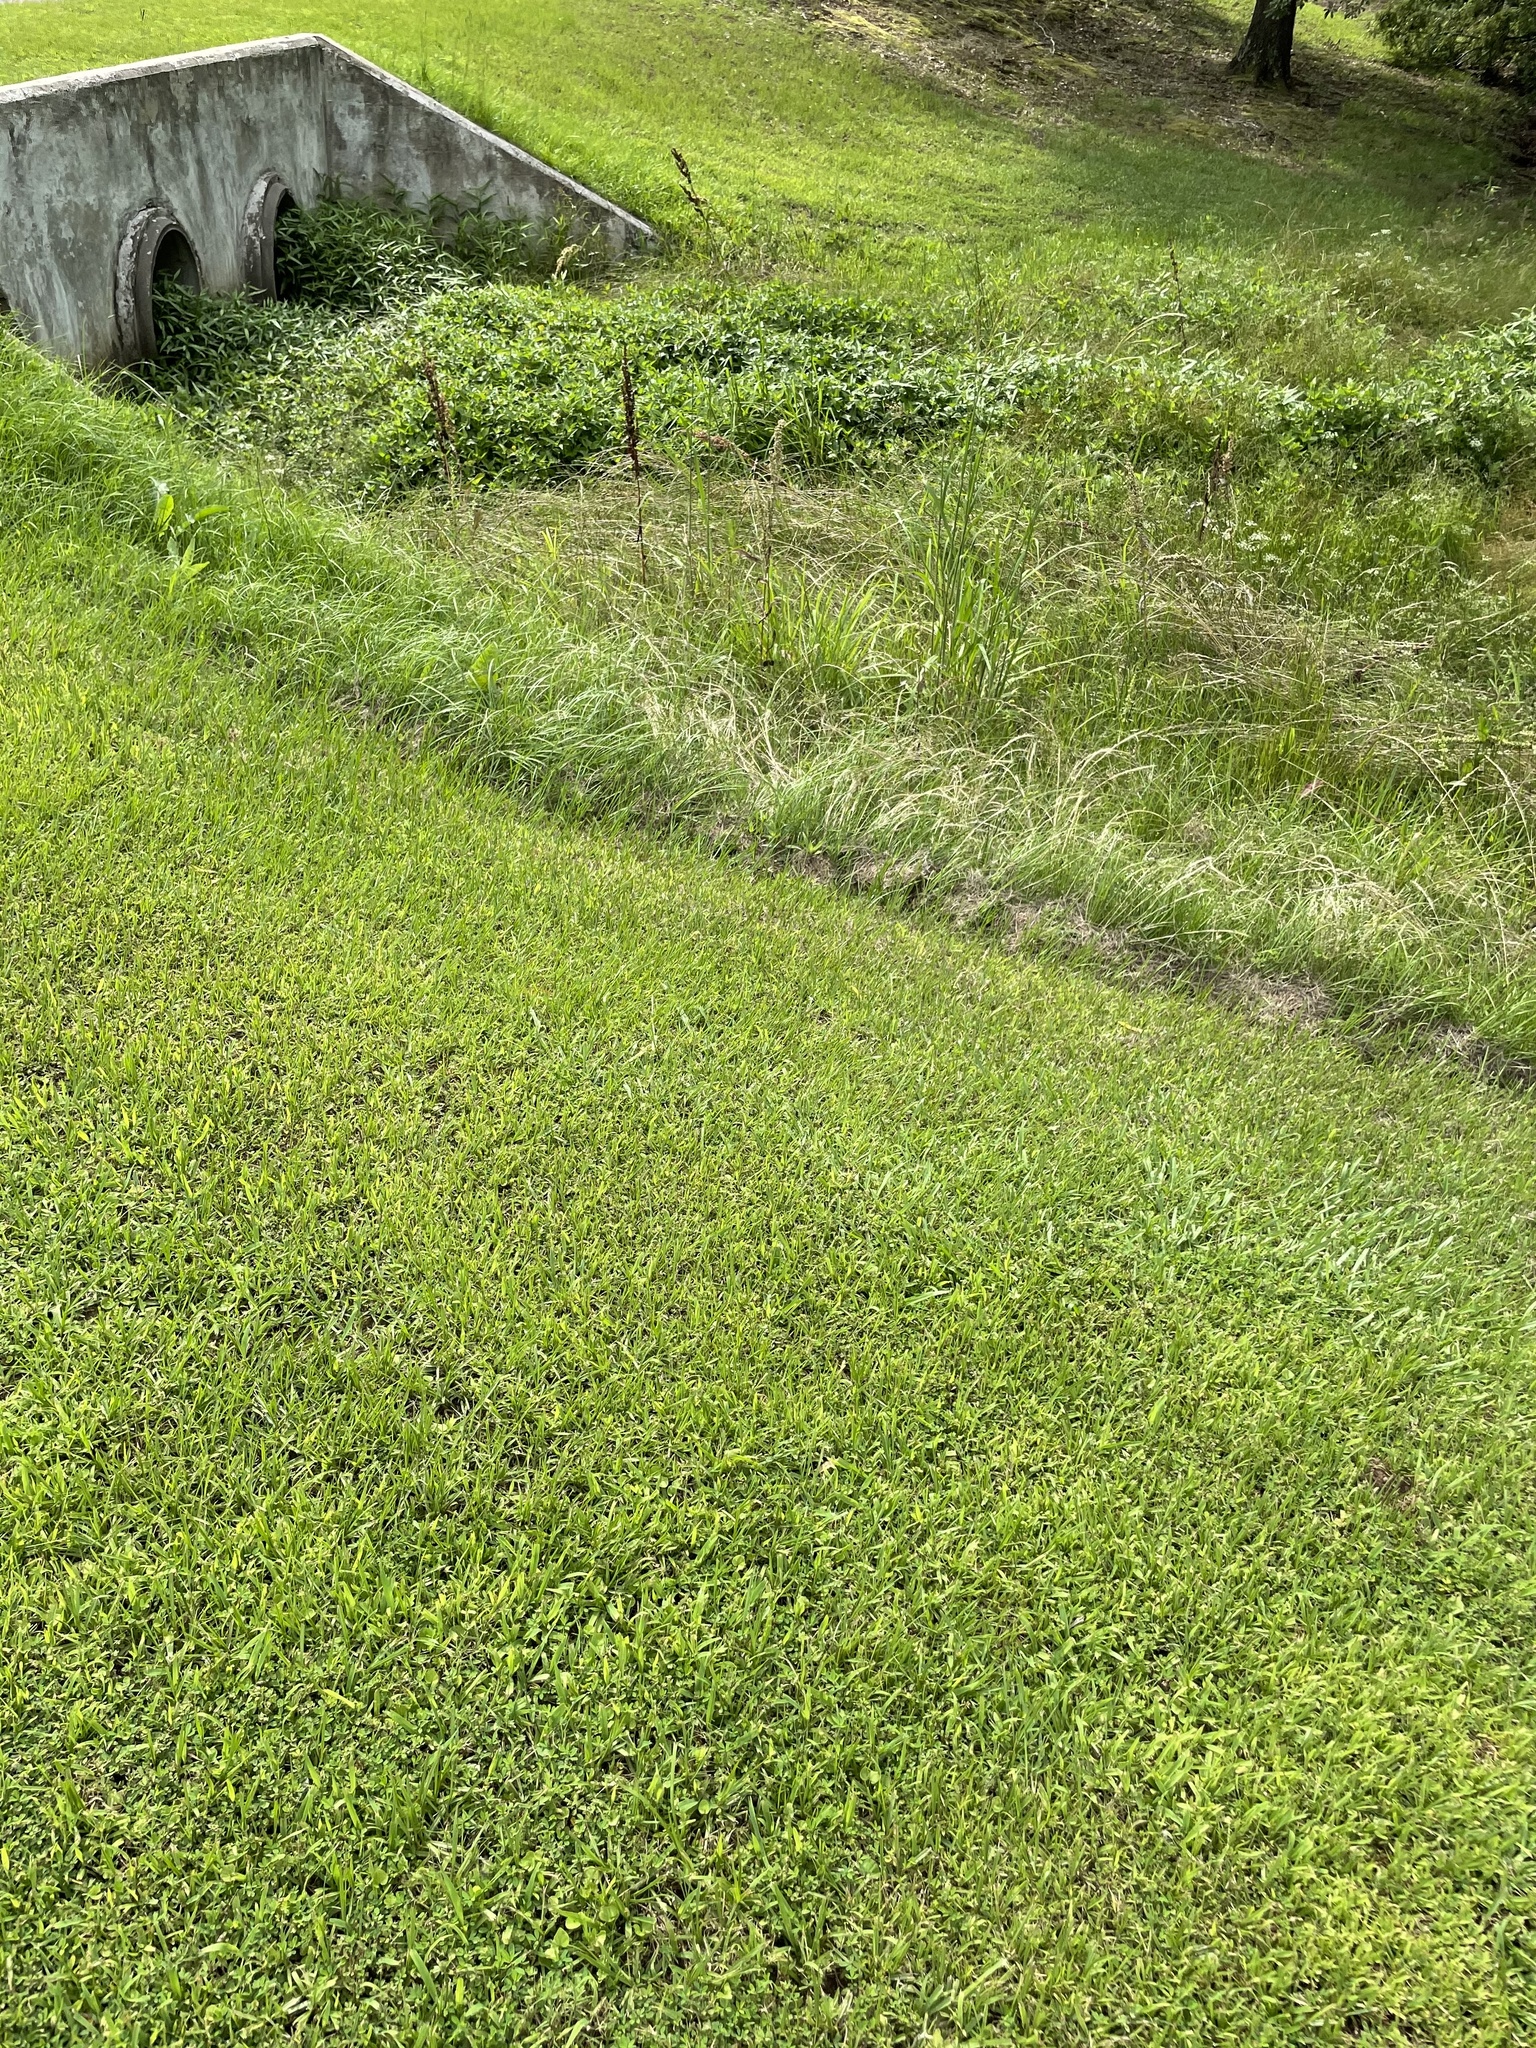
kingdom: Animalia
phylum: Arthropoda
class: Insecta
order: Odonata
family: Libellulidae
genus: Libellula
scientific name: Libellula luctuosa
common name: Widow skimmer
